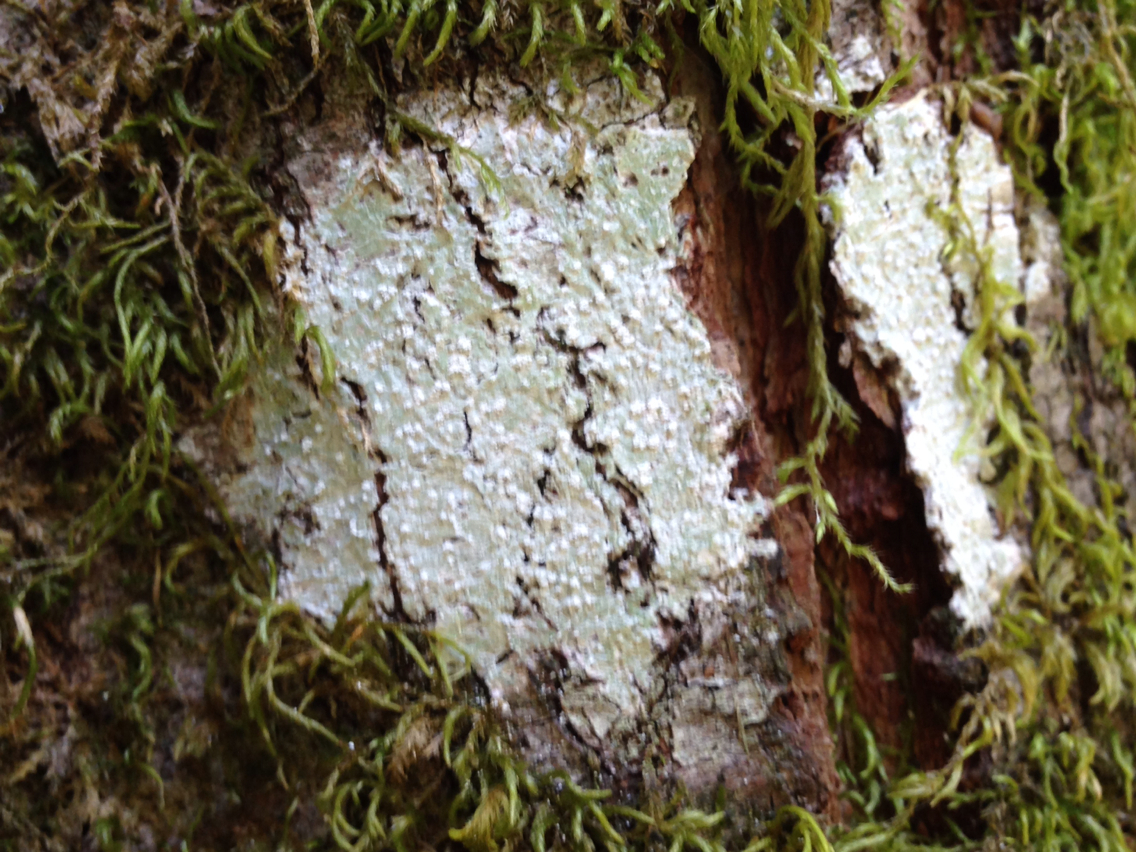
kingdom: Fungi
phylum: Ascomycota
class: Lecanoromycetes
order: Pertusariales
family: Pertusariaceae
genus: Lepra
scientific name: Lepra amara
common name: Bitter wart lichen
